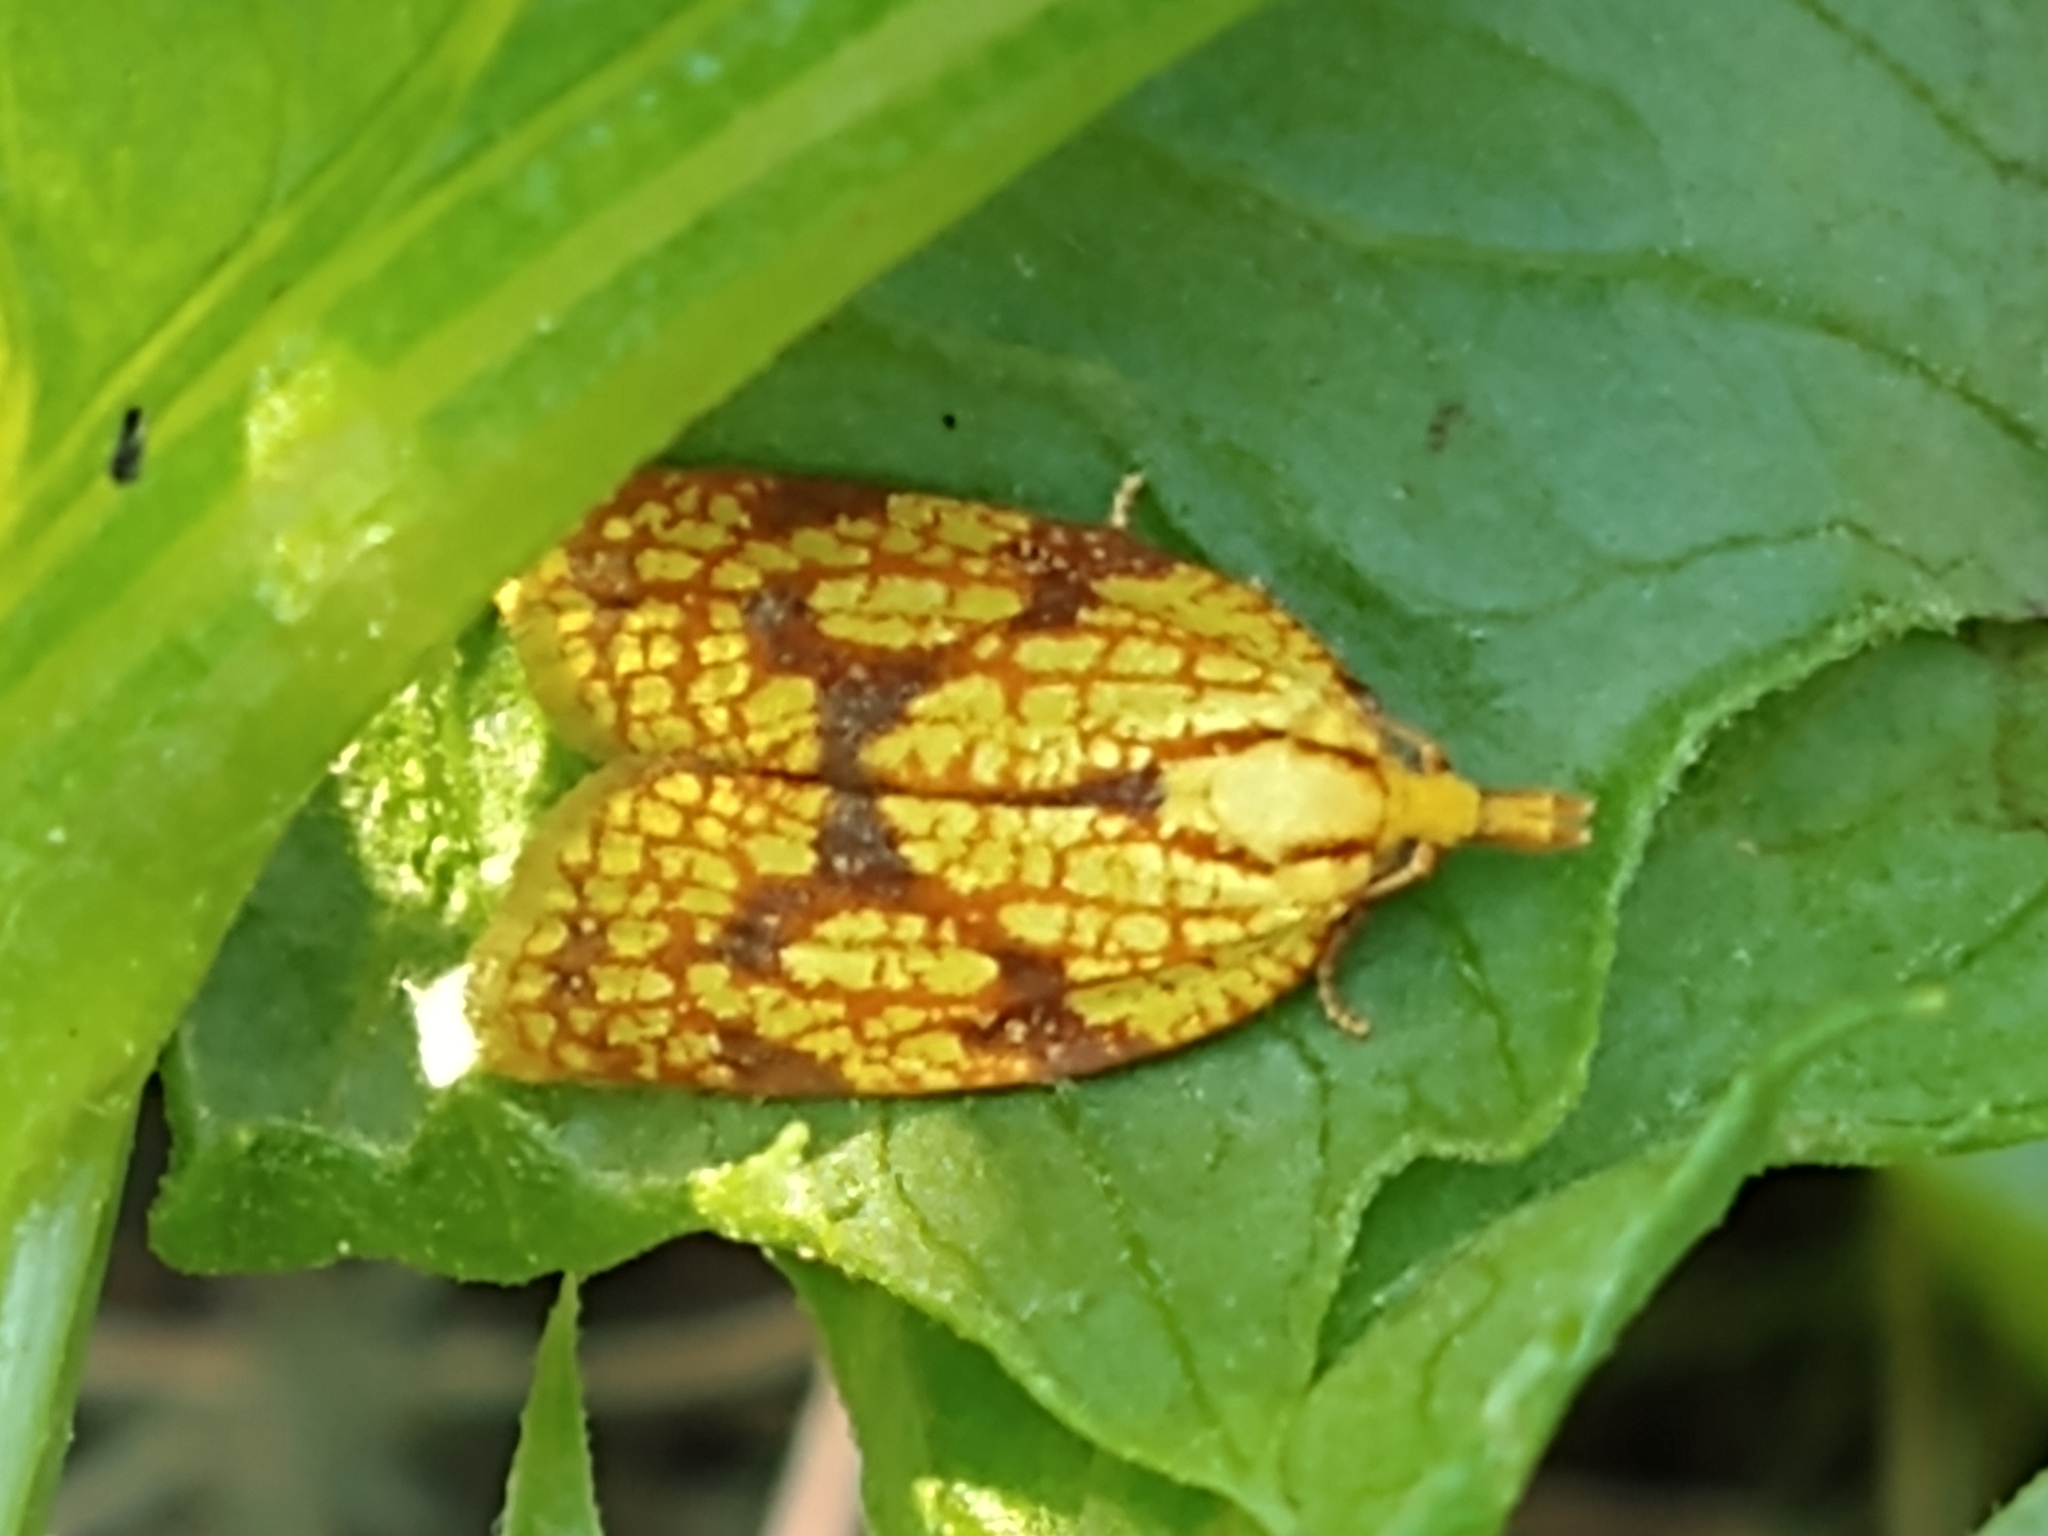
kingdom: Animalia
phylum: Arthropoda
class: Insecta
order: Lepidoptera
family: Tortricidae
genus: Sparganothis
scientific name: Sparganothis sulfureana
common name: Sparganothis fruitworm moth
